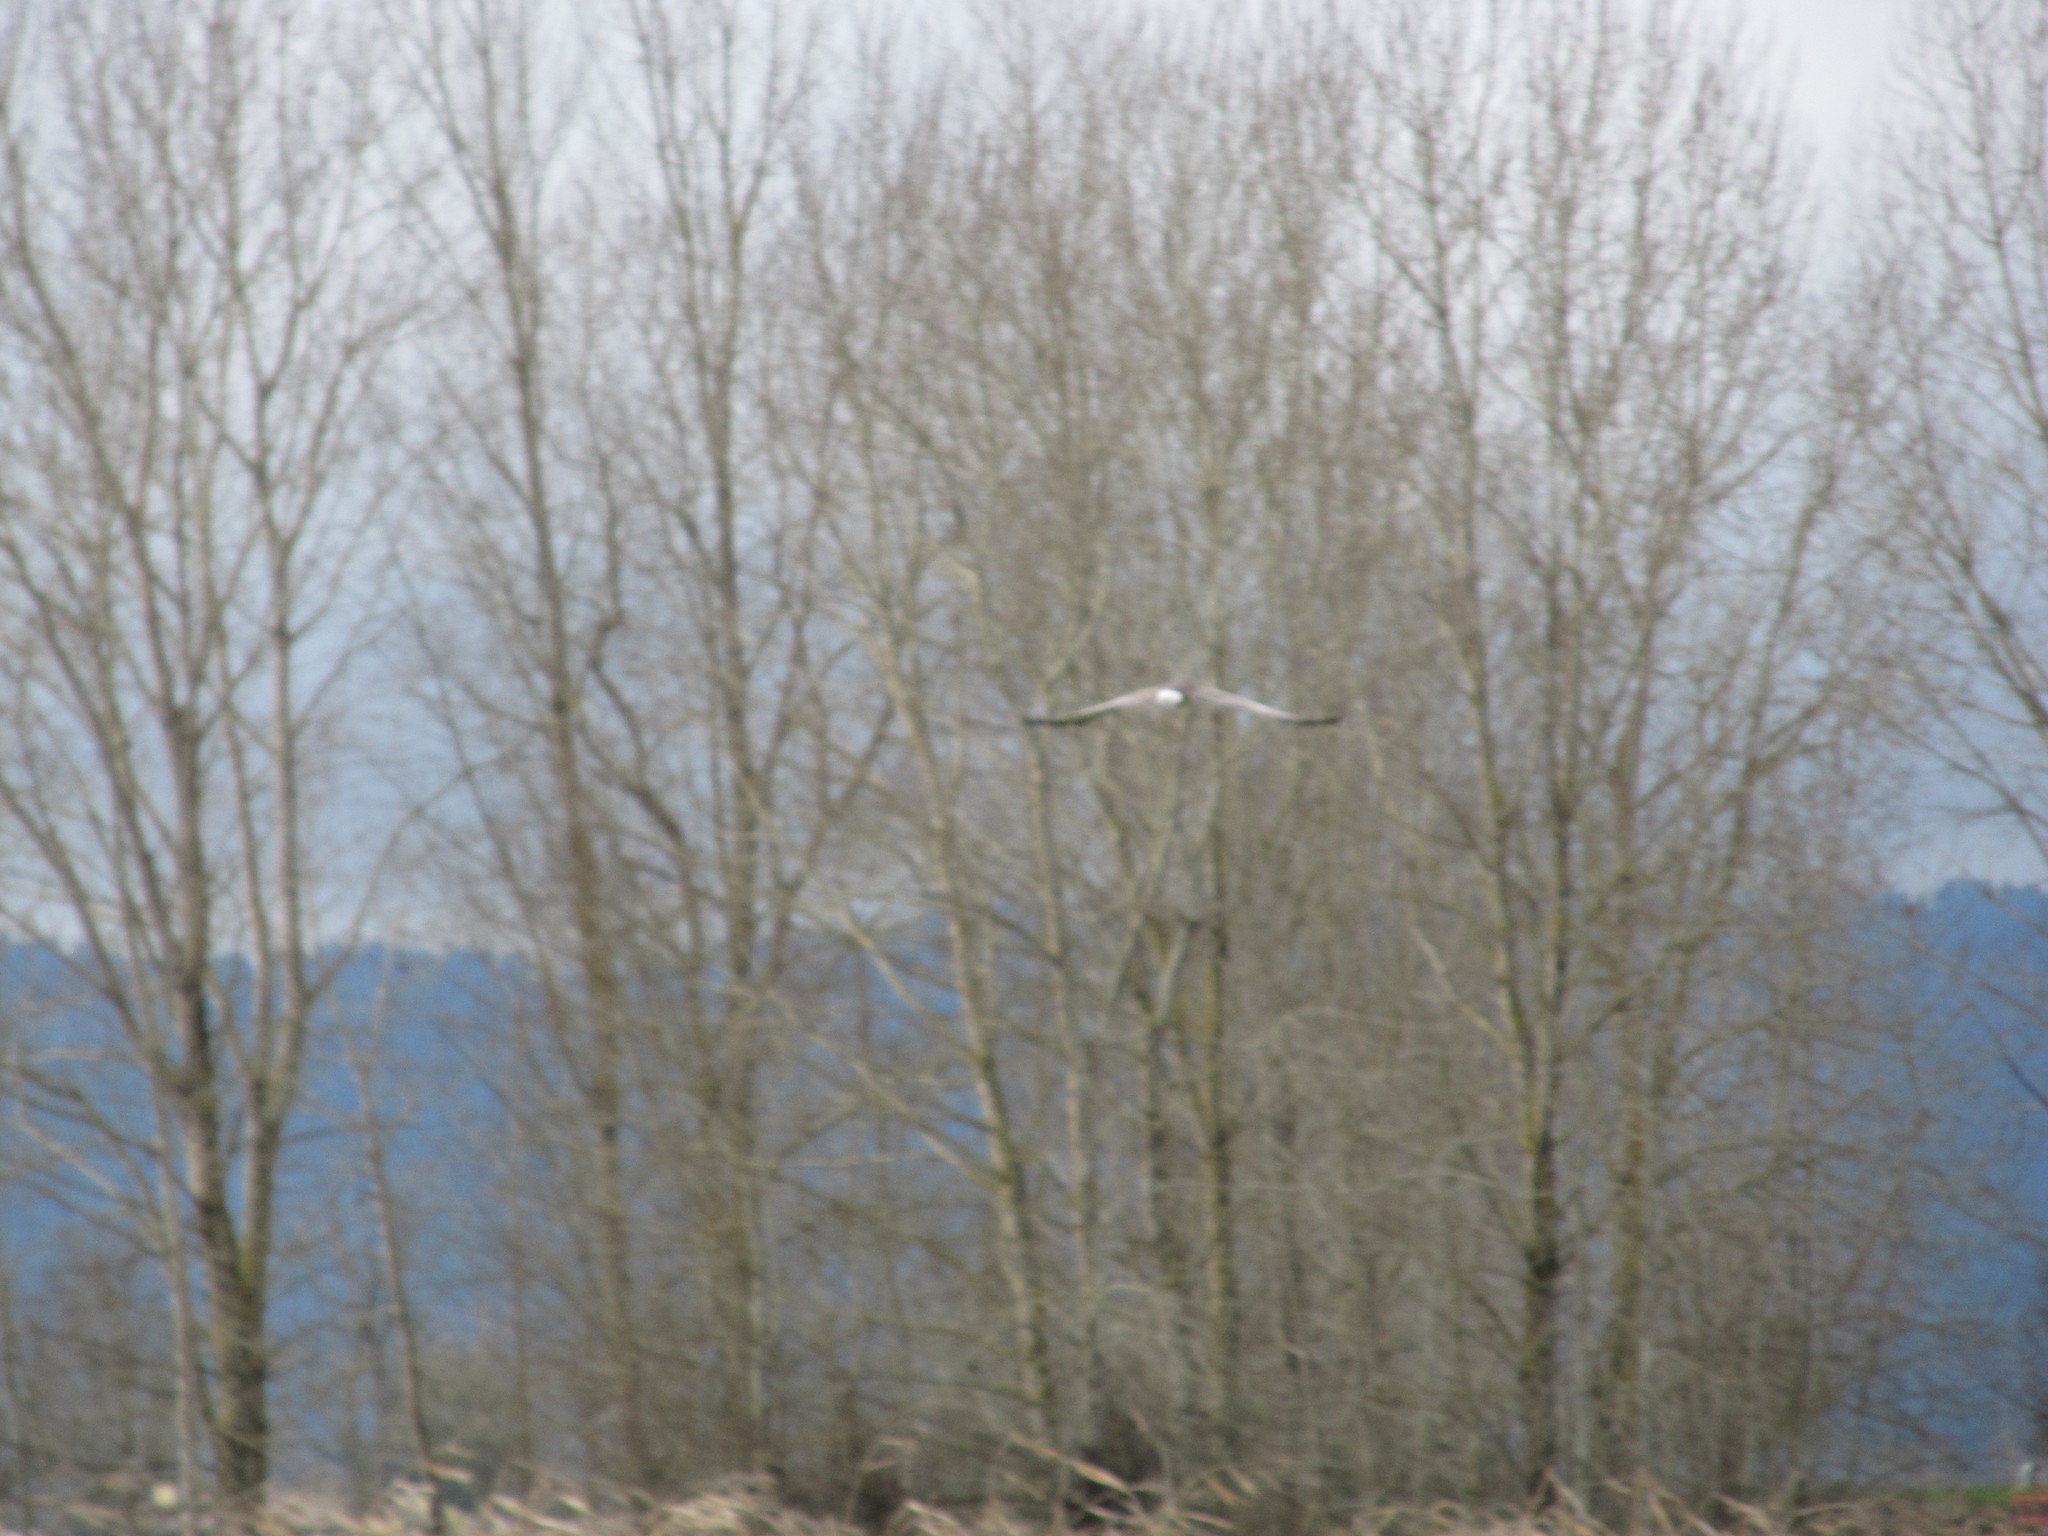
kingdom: Animalia
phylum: Chordata
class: Aves
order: Accipitriformes
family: Accipitridae
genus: Circus
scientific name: Circus cyaneus
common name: Hen harrier
